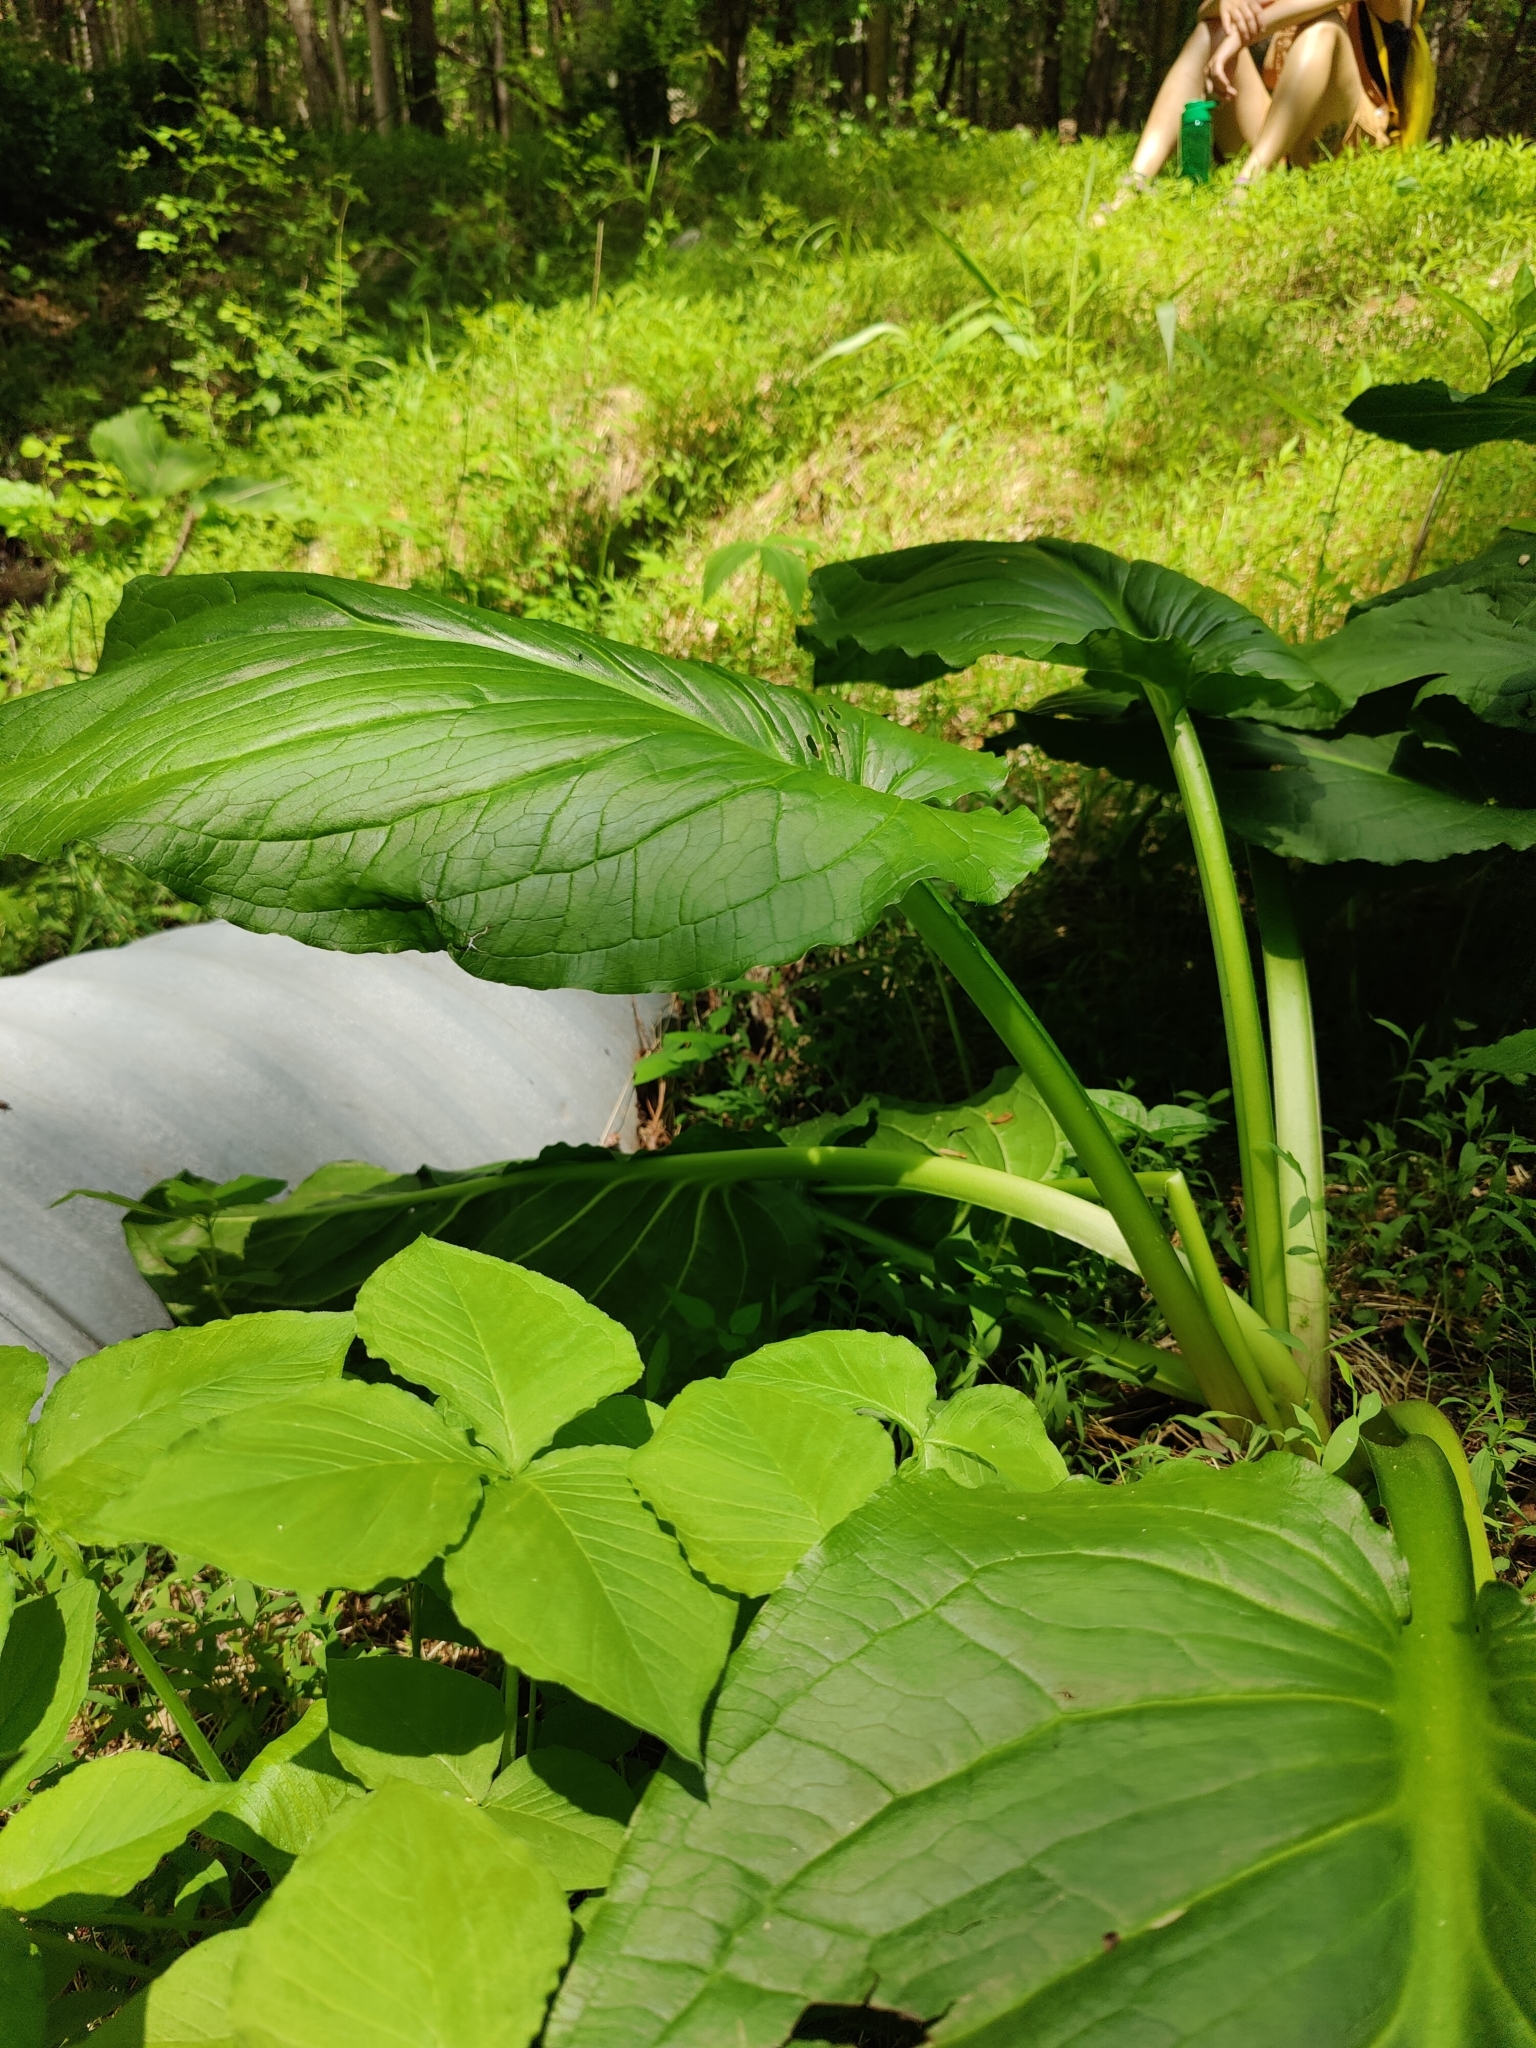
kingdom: Plantae
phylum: Tracheophyta
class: Liliopsida
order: Alismatales
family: Araceae
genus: Symplocarpus
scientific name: Symplocarpus foetidus
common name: Eastern skunk cabbage
